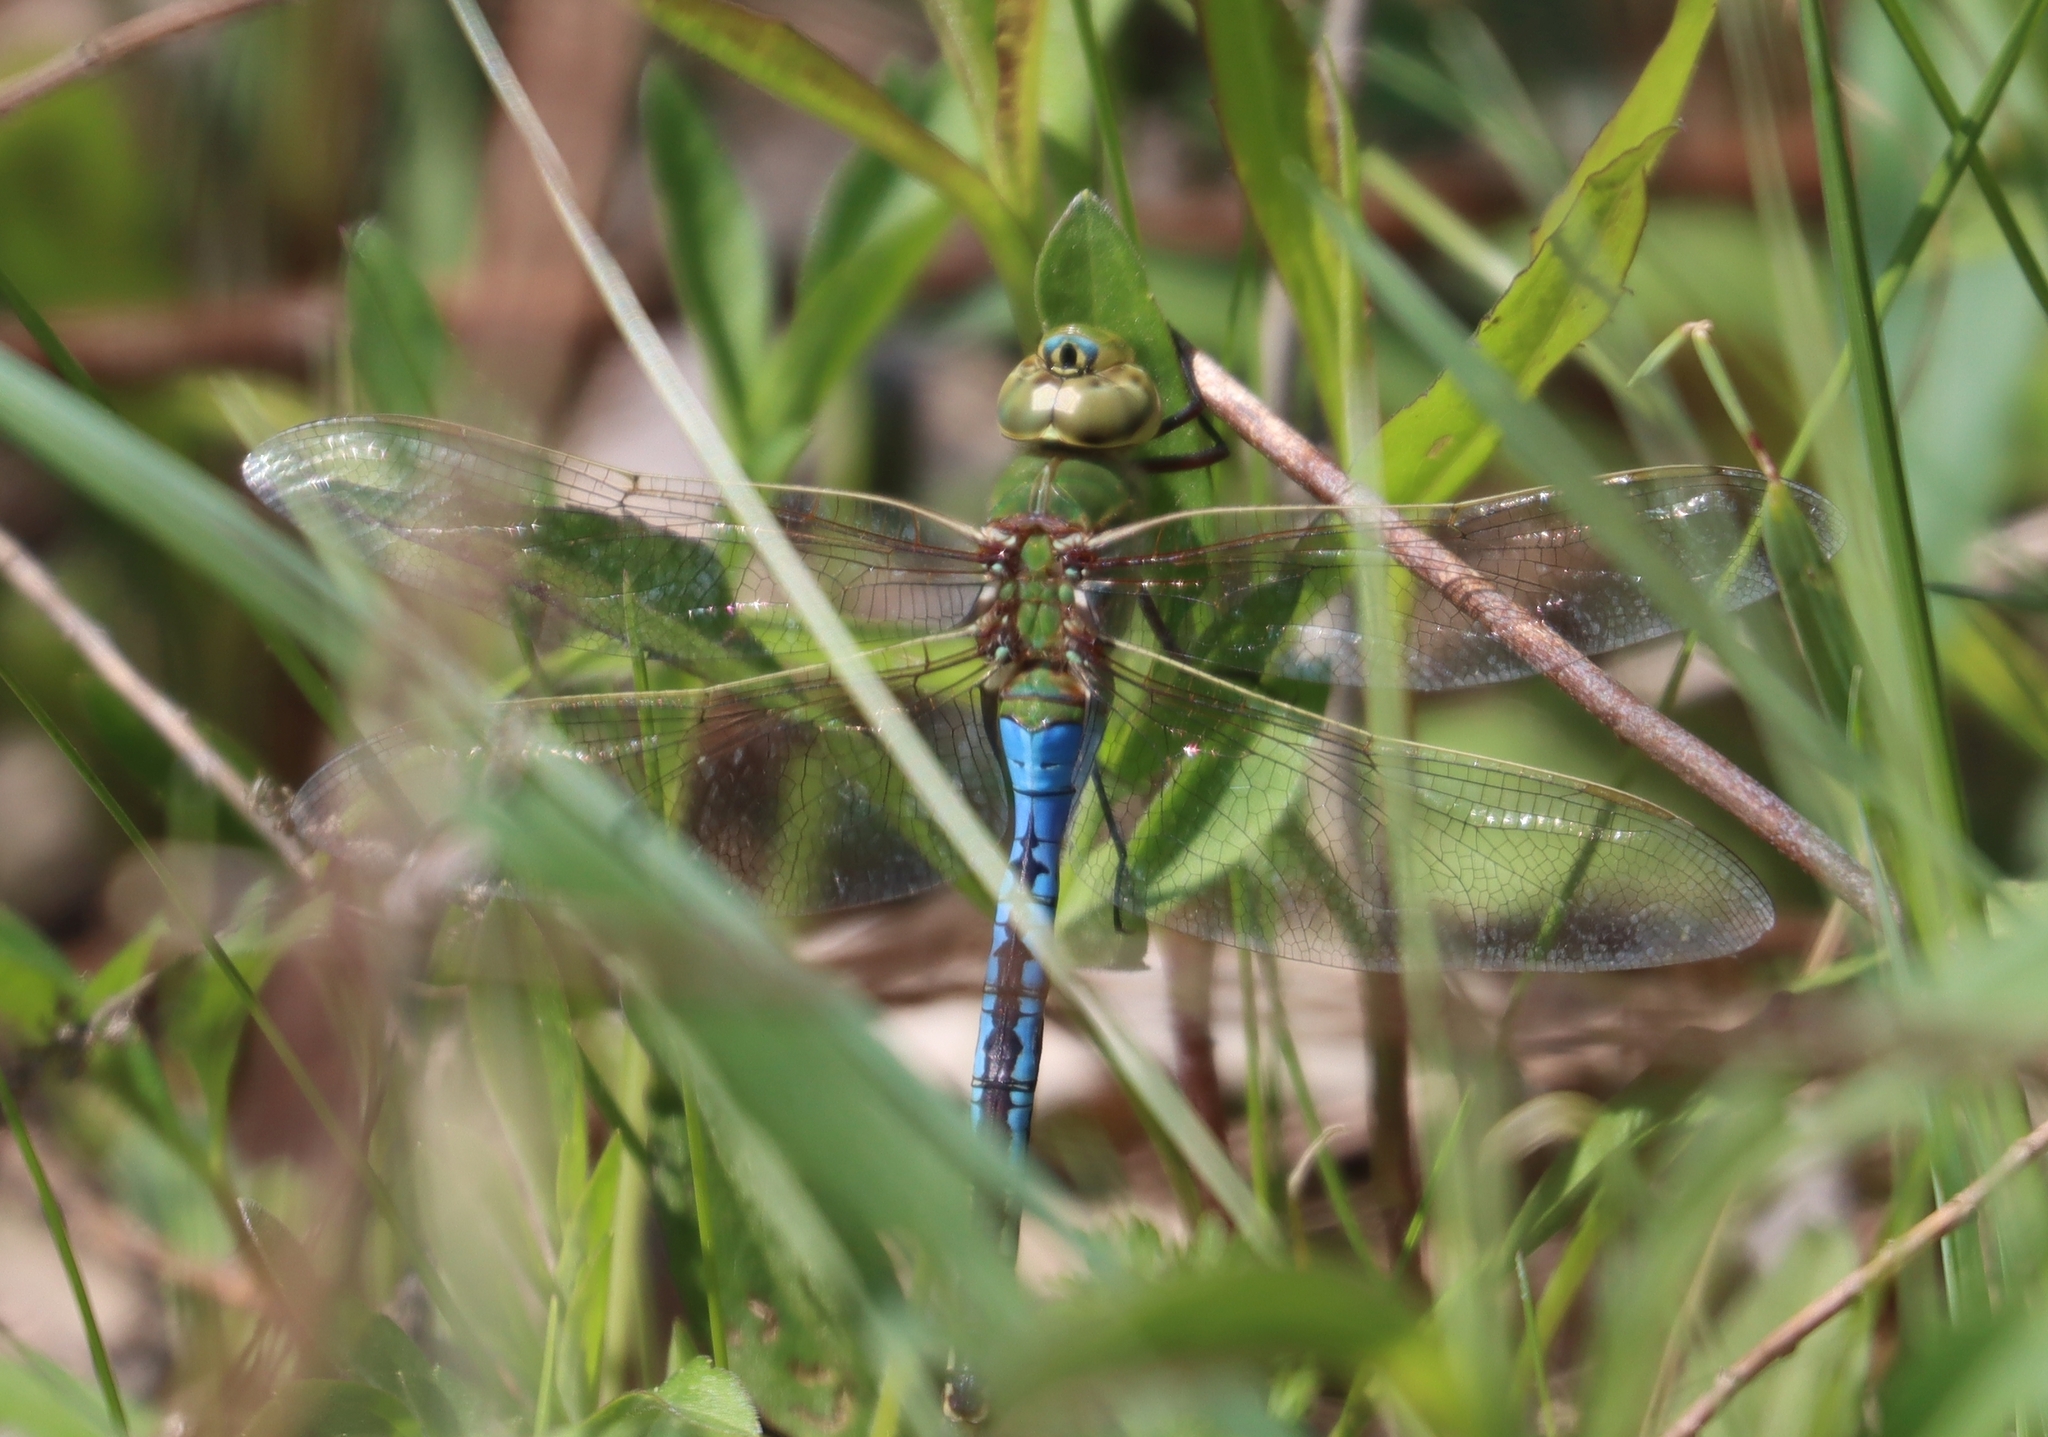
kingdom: Animalia
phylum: Arthropoda
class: Insecta
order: Odonata
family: Aeshnidae
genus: Anax
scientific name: Anax junius
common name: Common green darner
